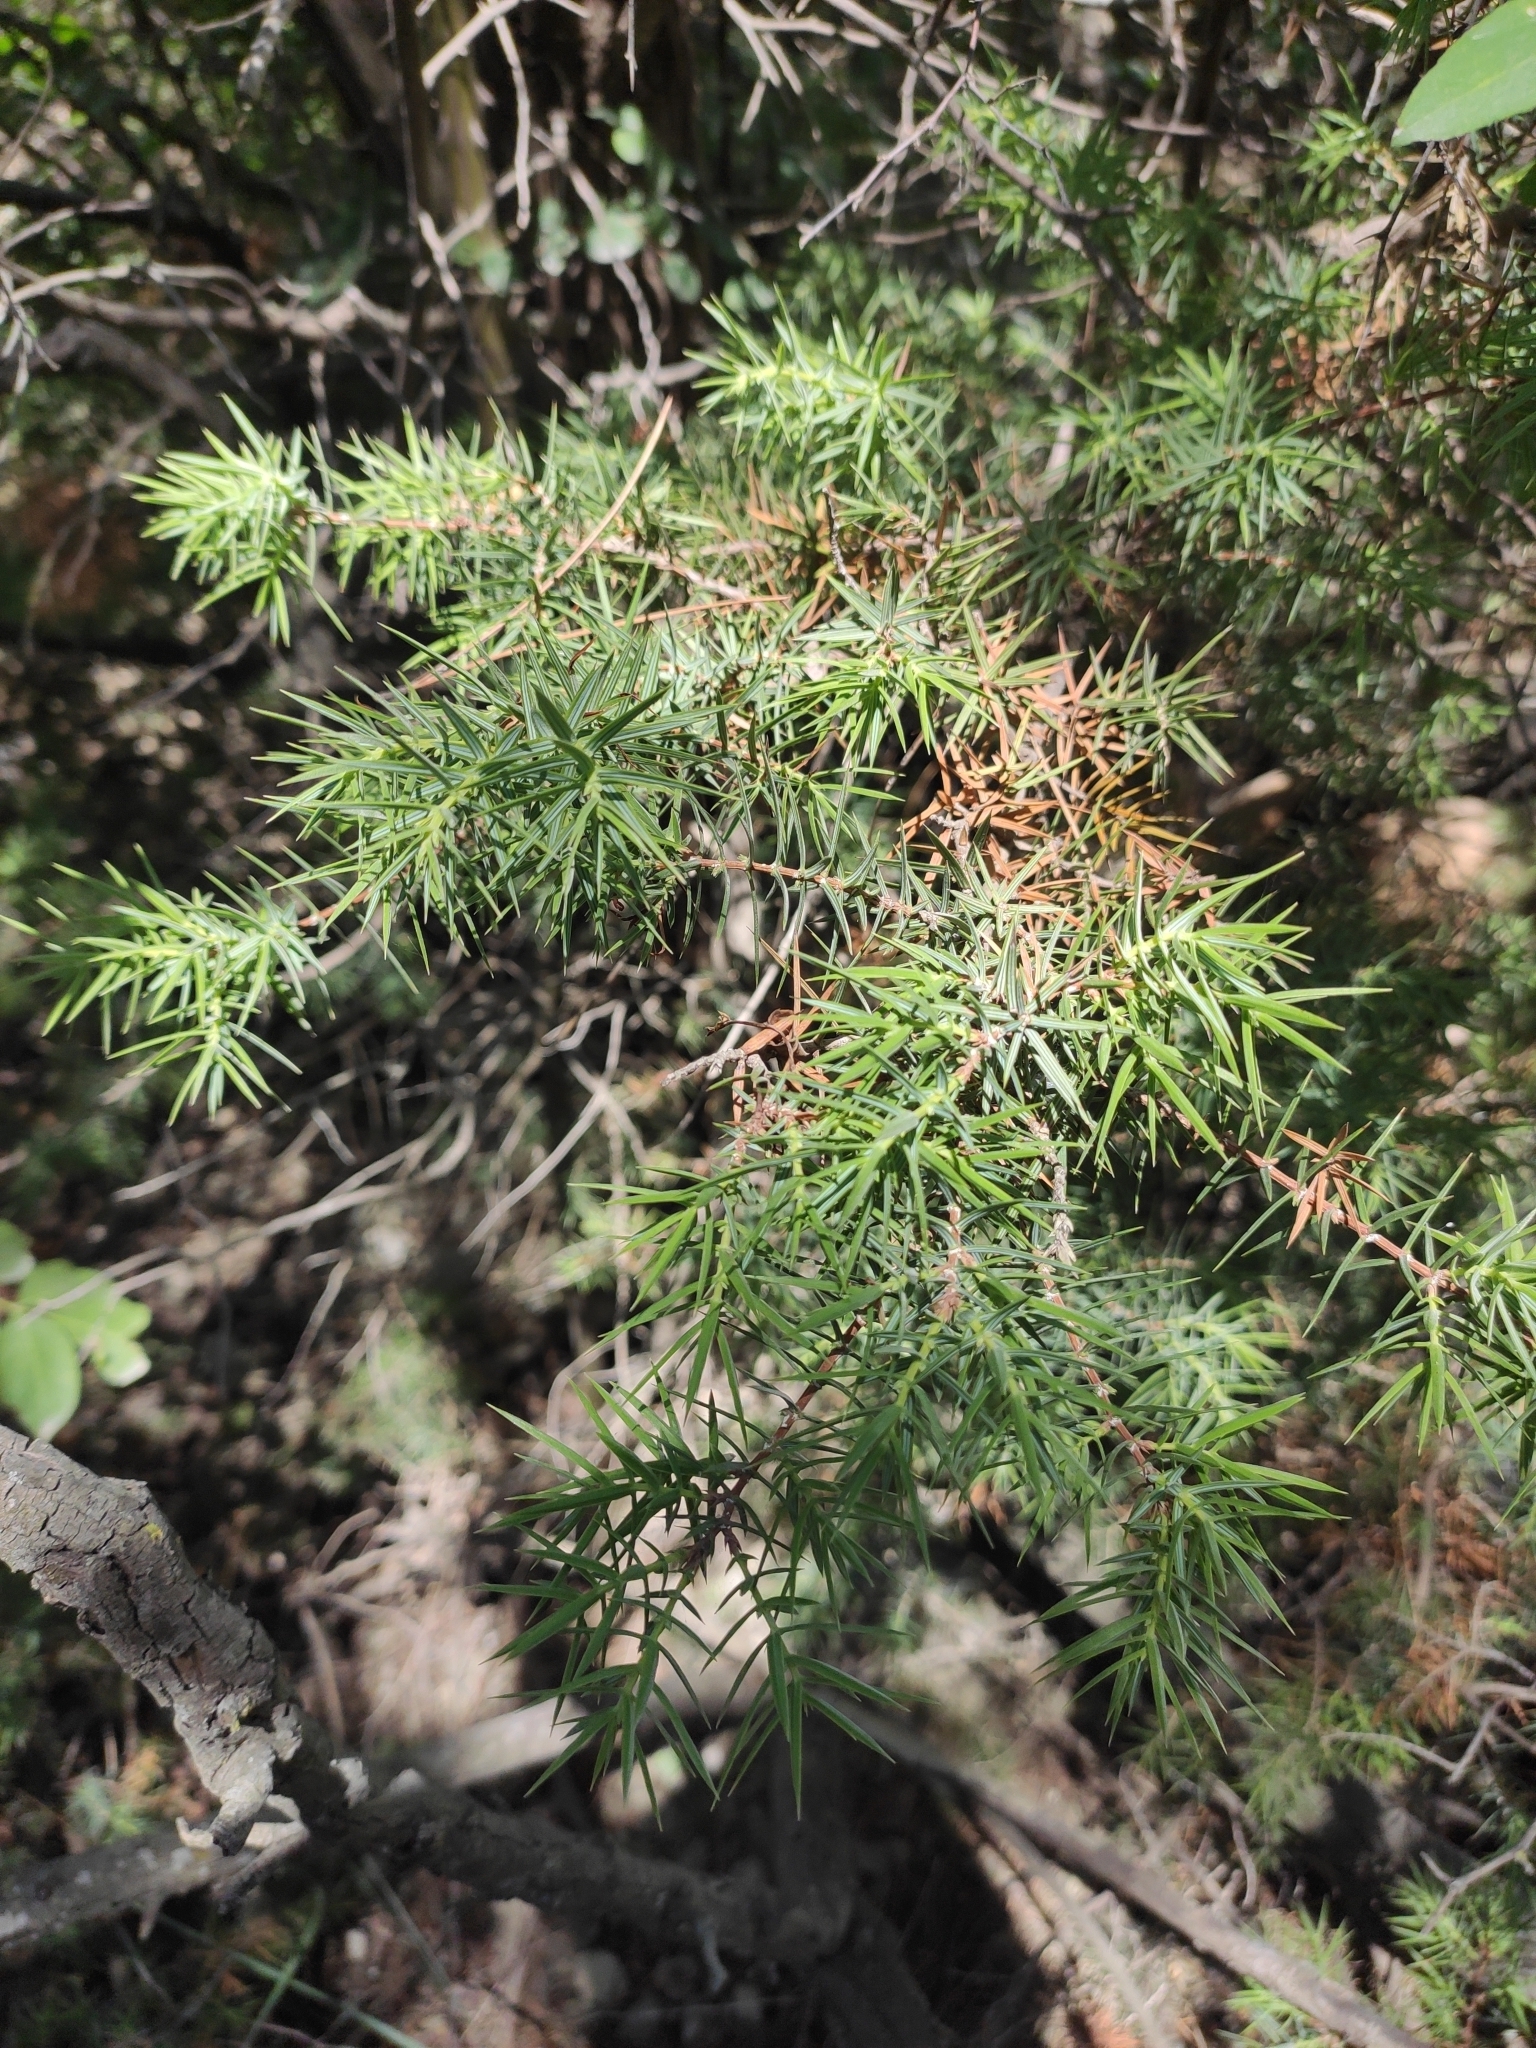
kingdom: Plantae
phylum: Tracheophyta
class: Pinopsida
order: Pinales
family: Cupressaceae
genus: Juniperus
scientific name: Juniperus oxycedrus
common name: Prickly juniper
